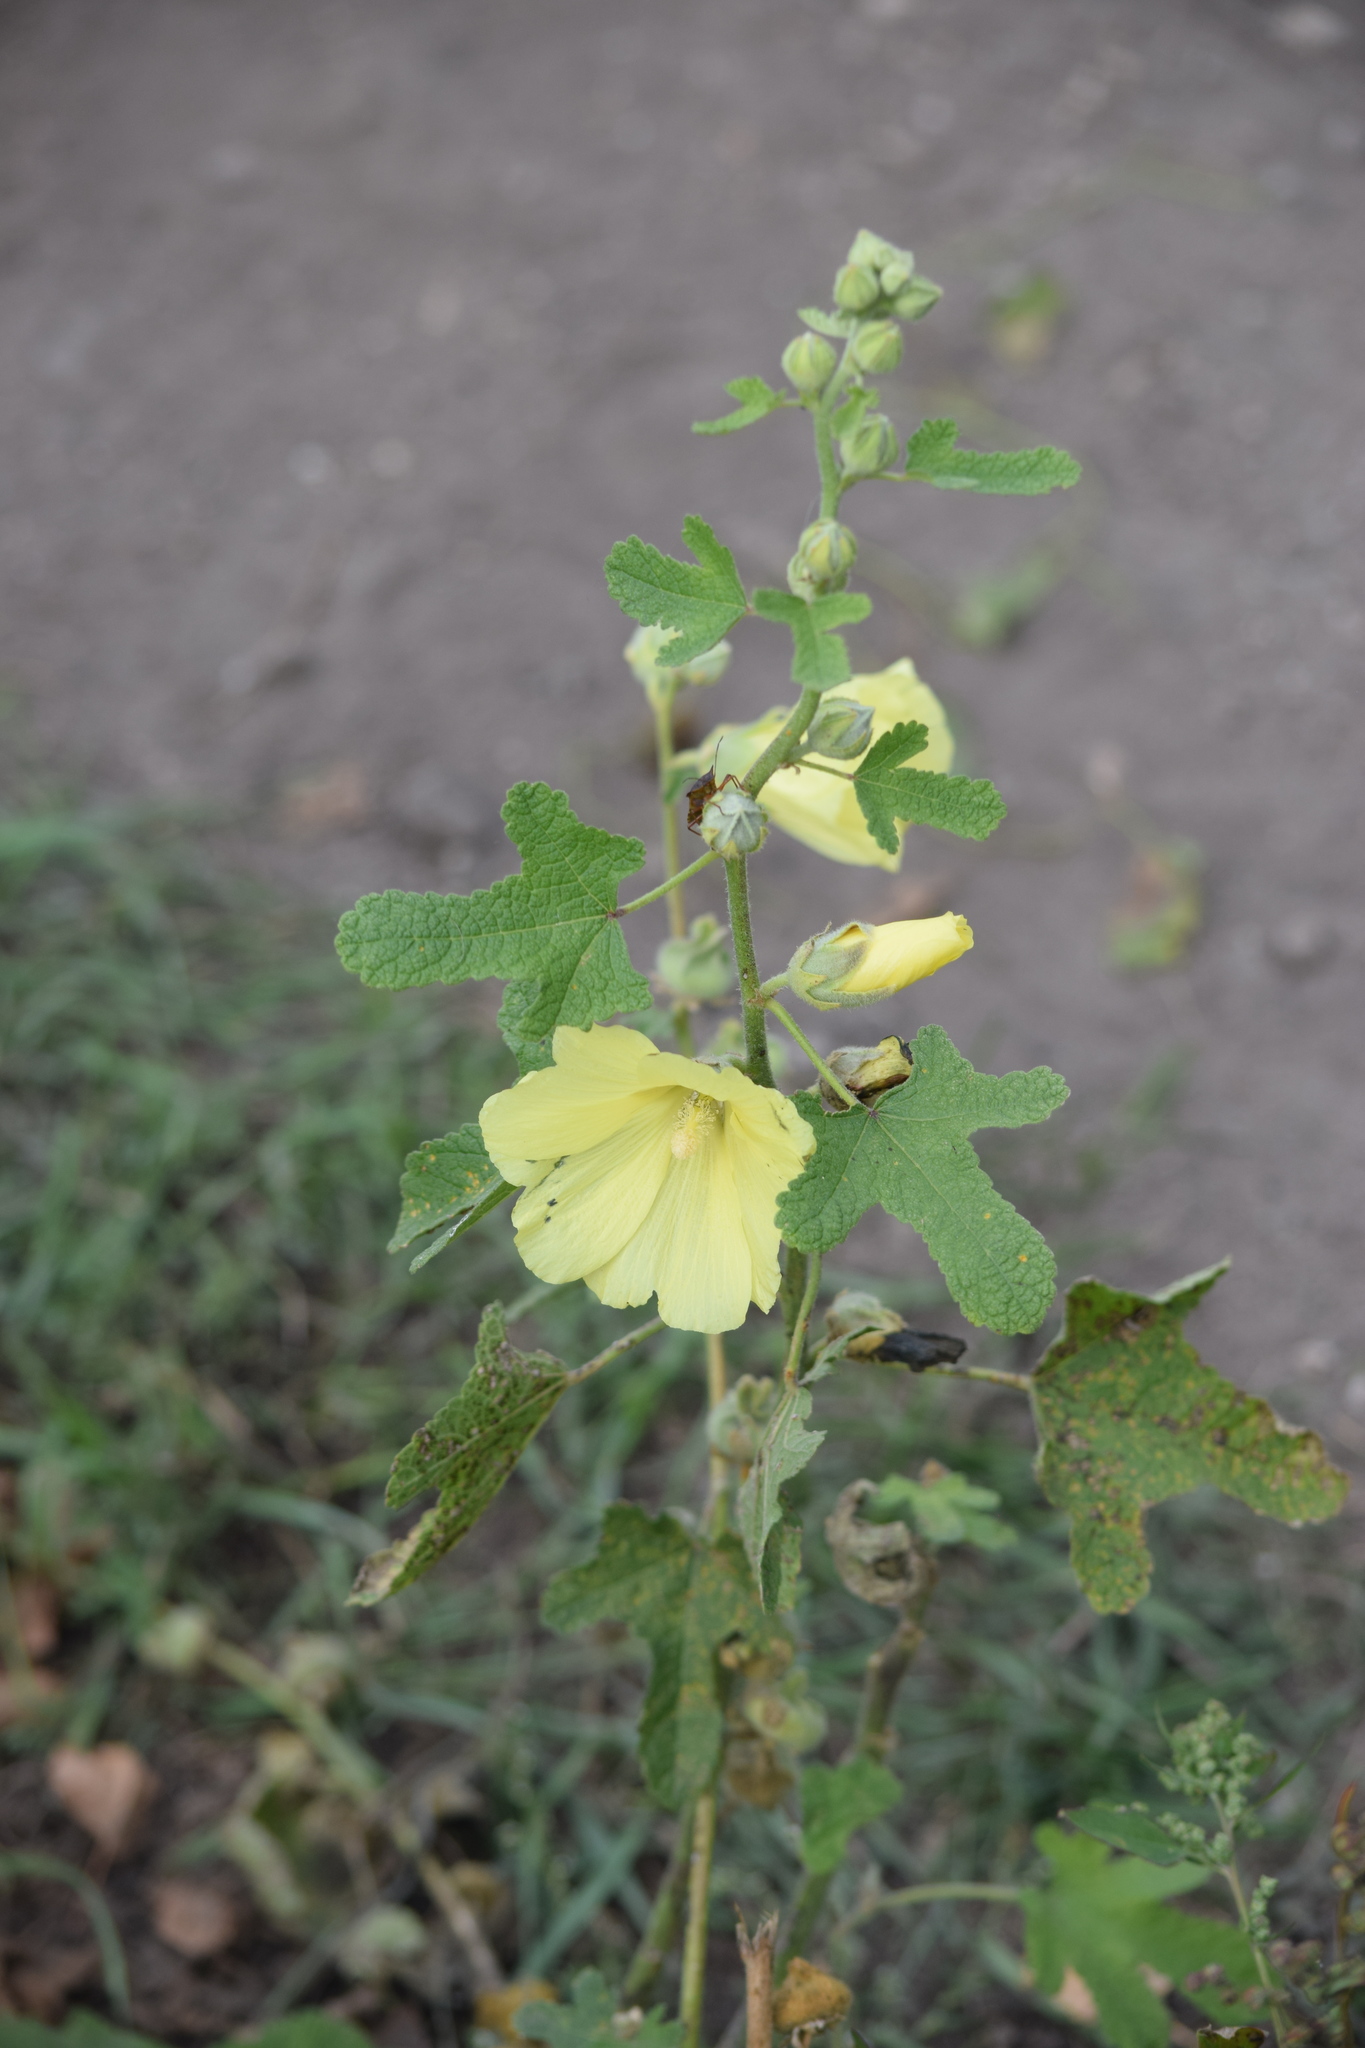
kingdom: Plantae
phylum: Tracheophyta
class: Magnoliopsida
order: Malvales
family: Malvaceae
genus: Alcea
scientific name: Alcea rugosa
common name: Russian hollyhock
